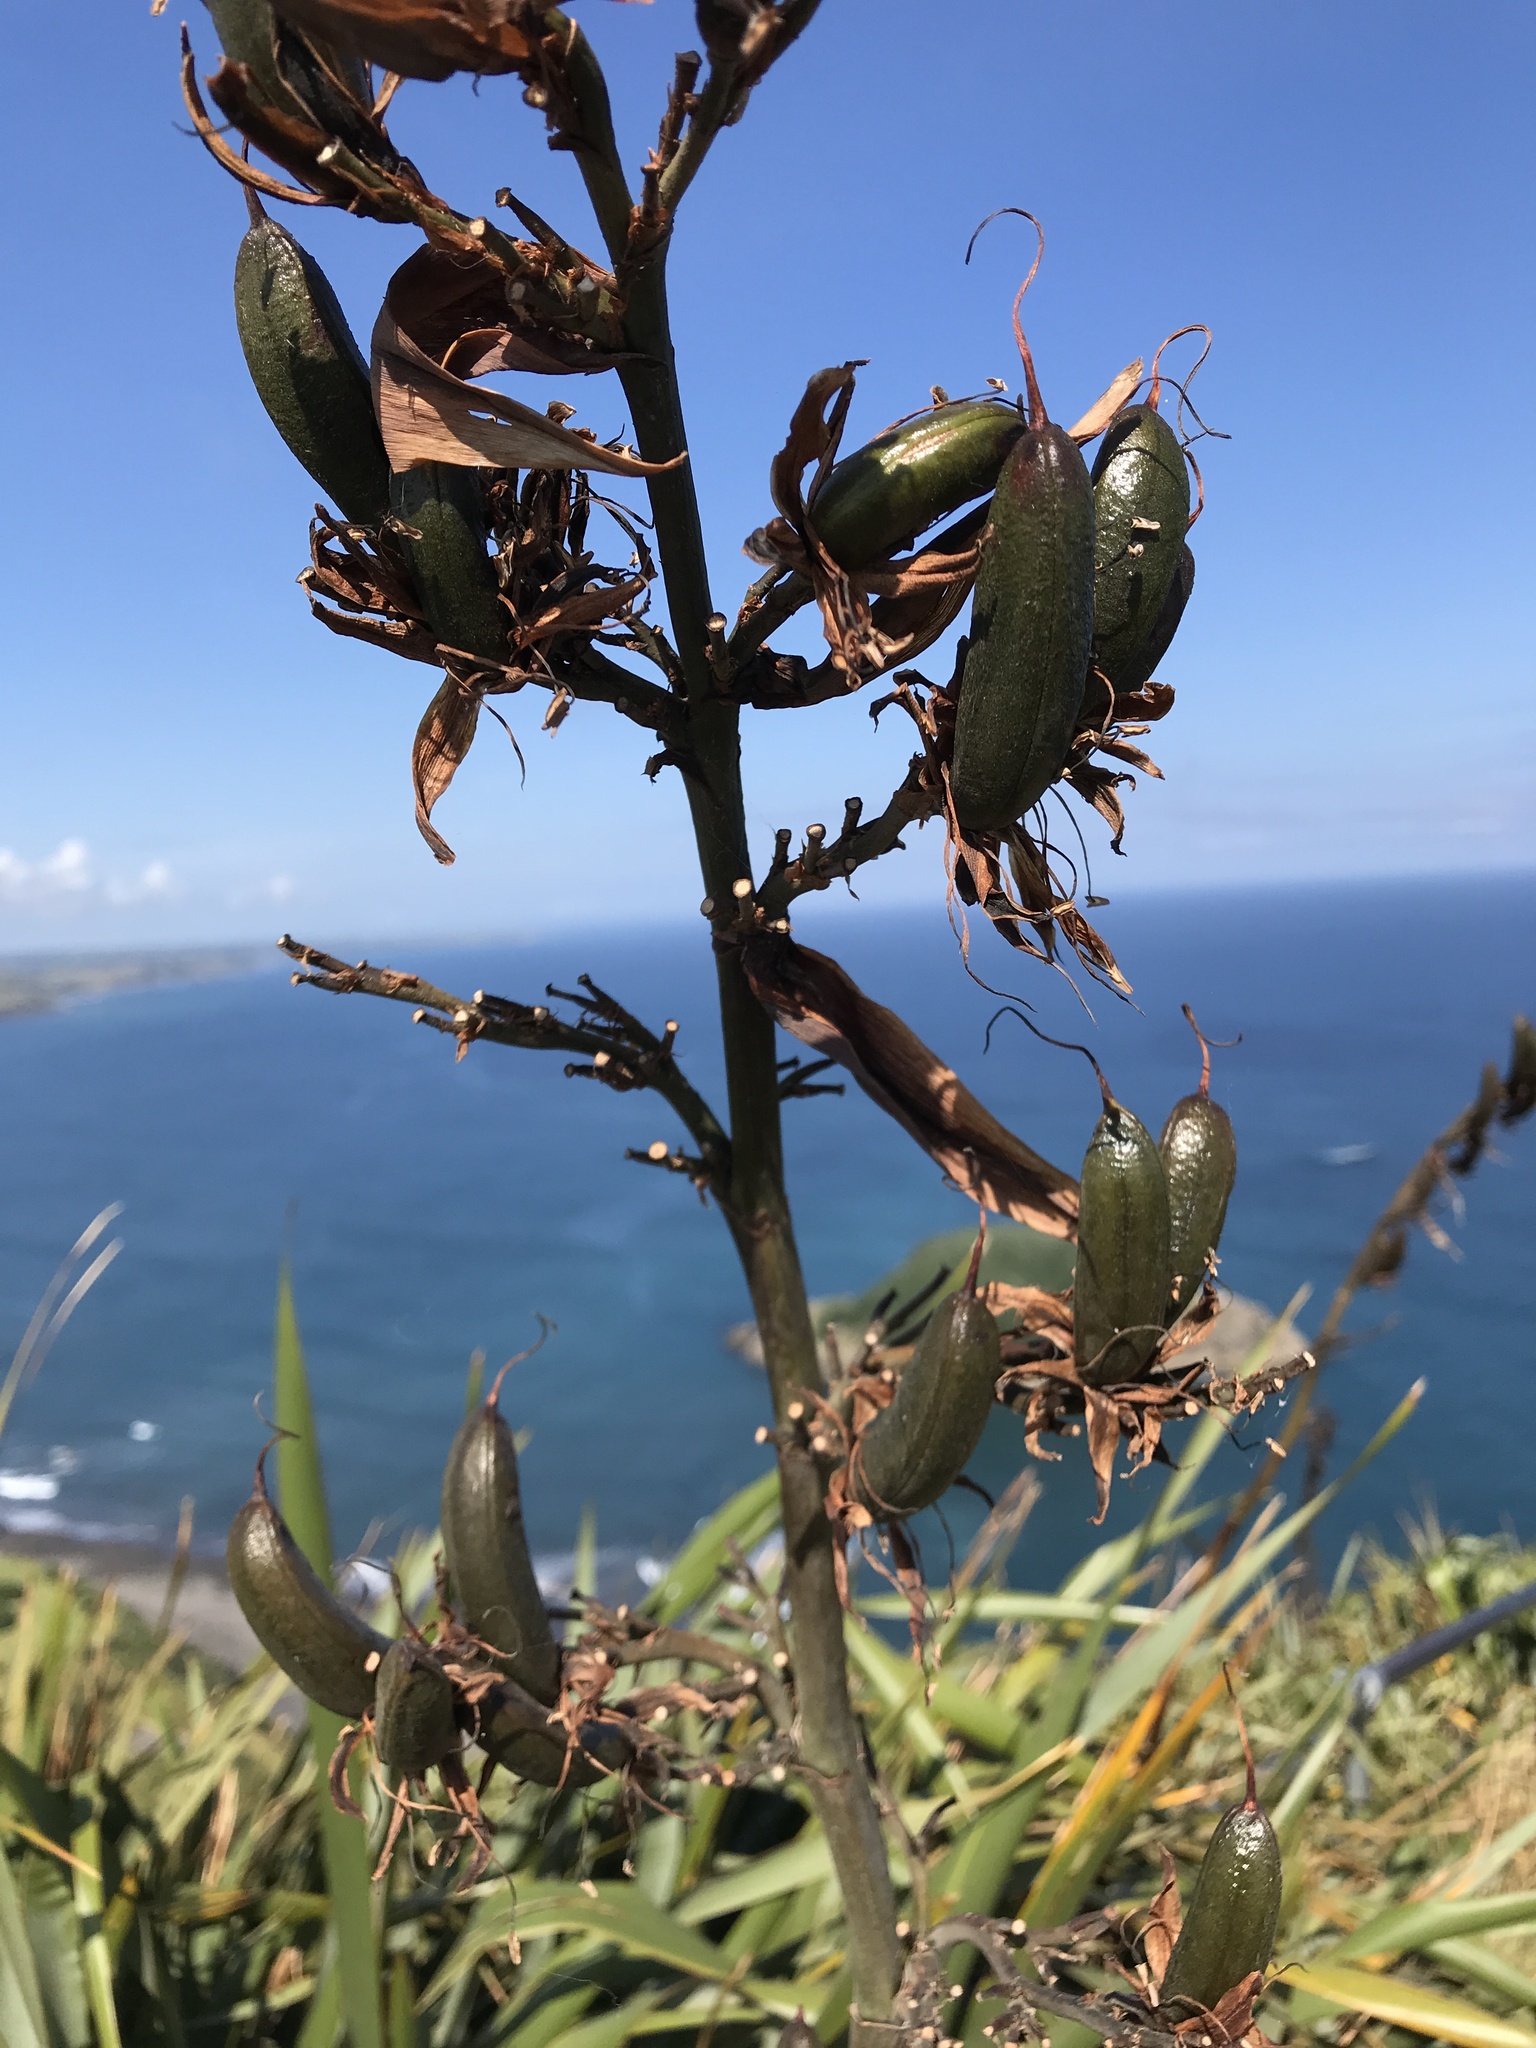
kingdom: Plantae
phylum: Tracheophyta
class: Liliopsida
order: Asparagales
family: Asphodelaceae
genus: Phormium
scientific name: Phormium tenax
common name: New zealand flax
